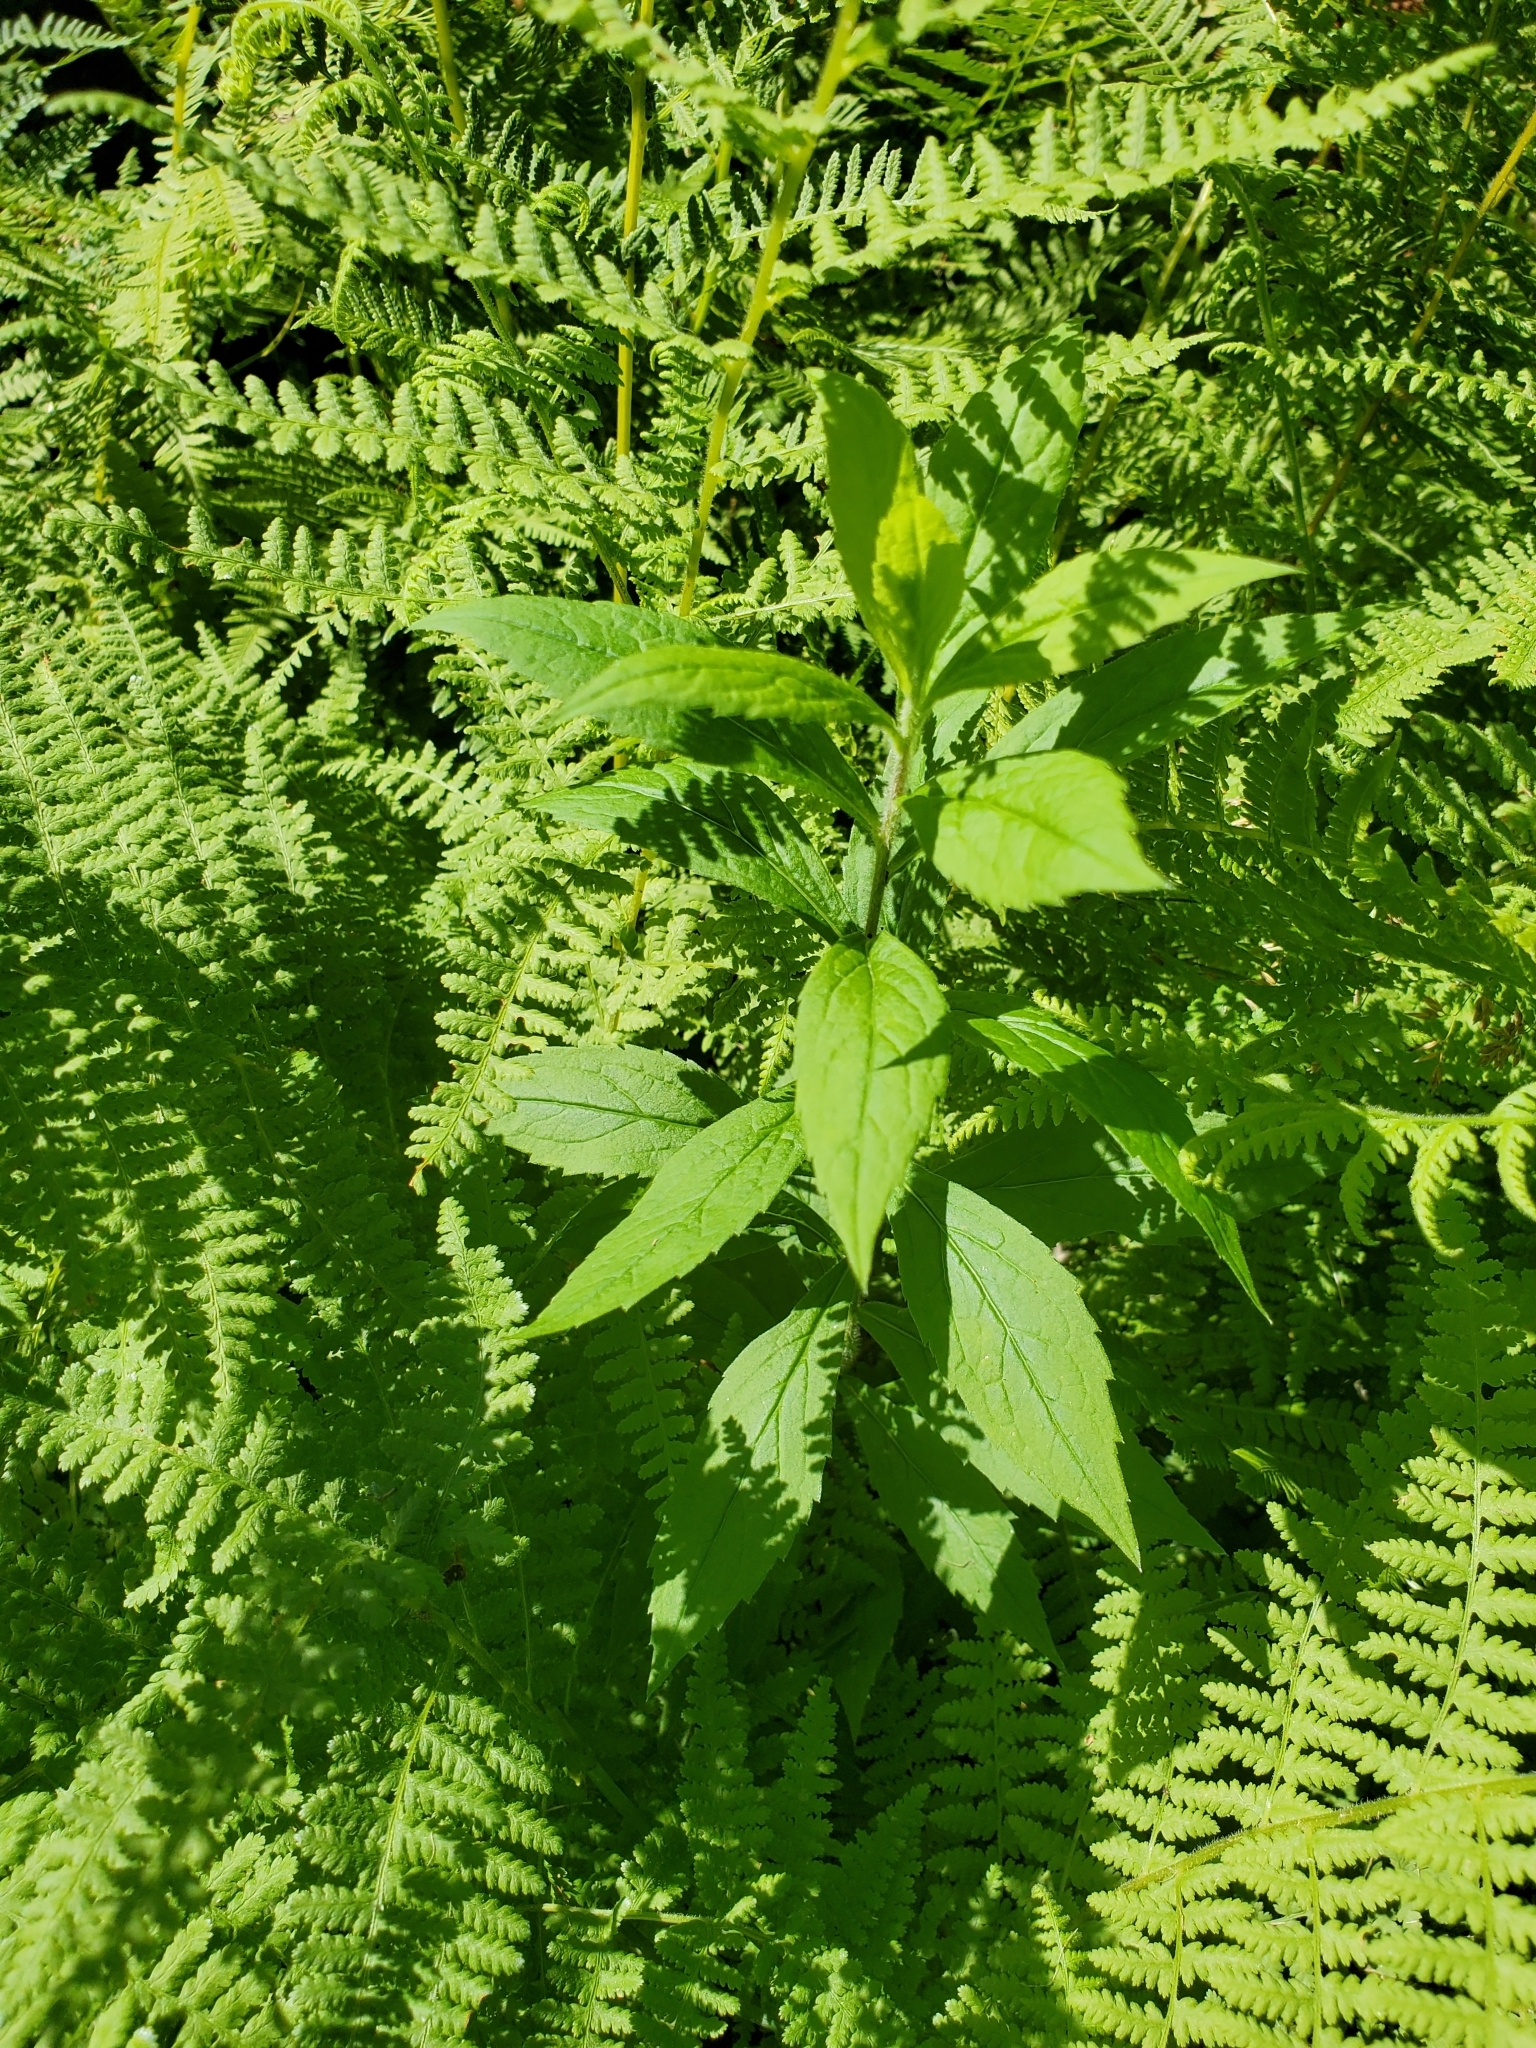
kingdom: Plantae
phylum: Tracheophyta
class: Magnoliopsida
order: Asterales
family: Asteraceae
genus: Solidago
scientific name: Solidago rugosa
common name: Rough-stemmed goldenrod
